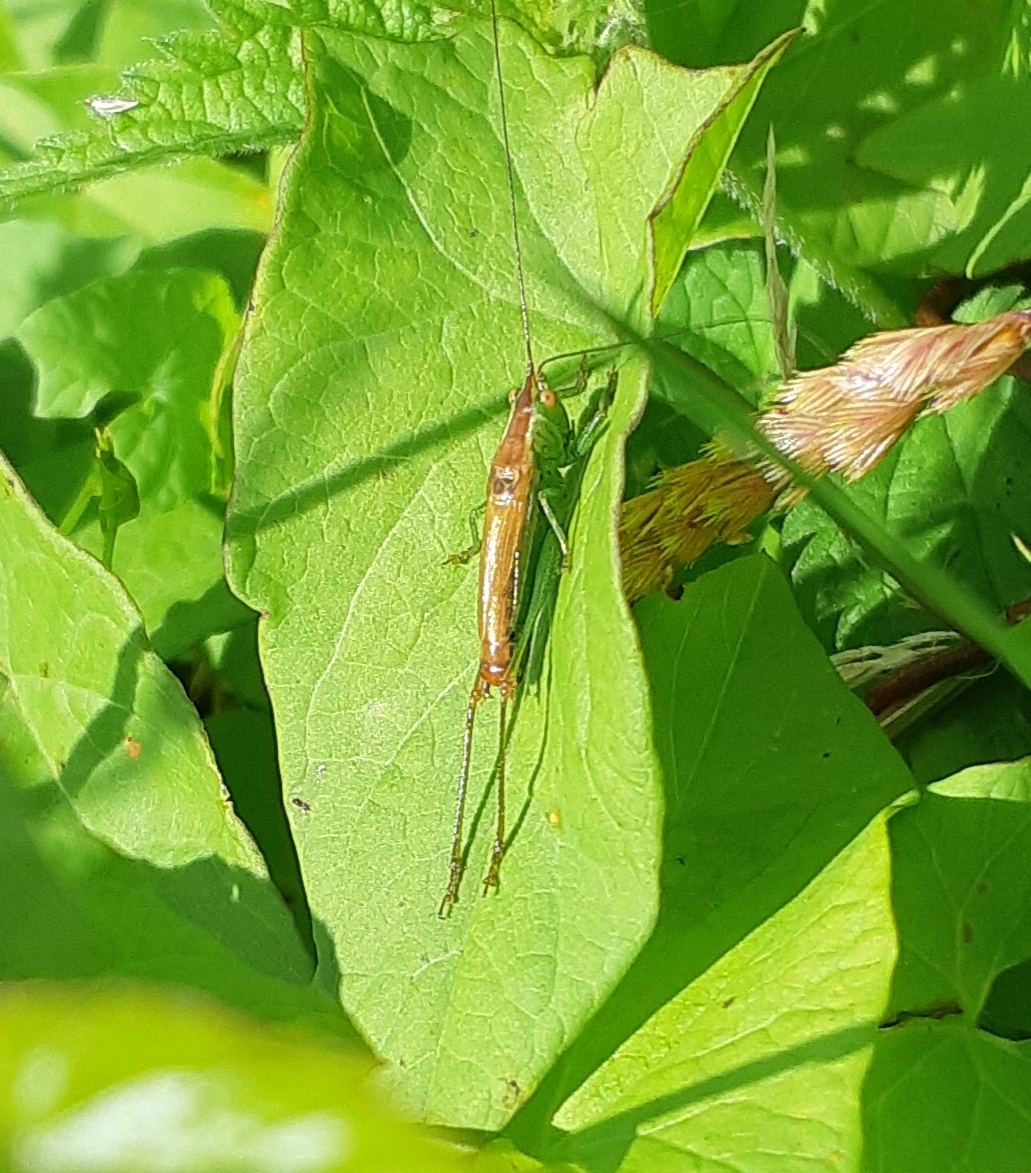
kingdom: Animalia
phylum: Arthropoda
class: Insecta
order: Orthoptera
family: Tettigoniidae
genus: Conocephalus
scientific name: Conocephalus dorsalis
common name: Short-winged conehead
